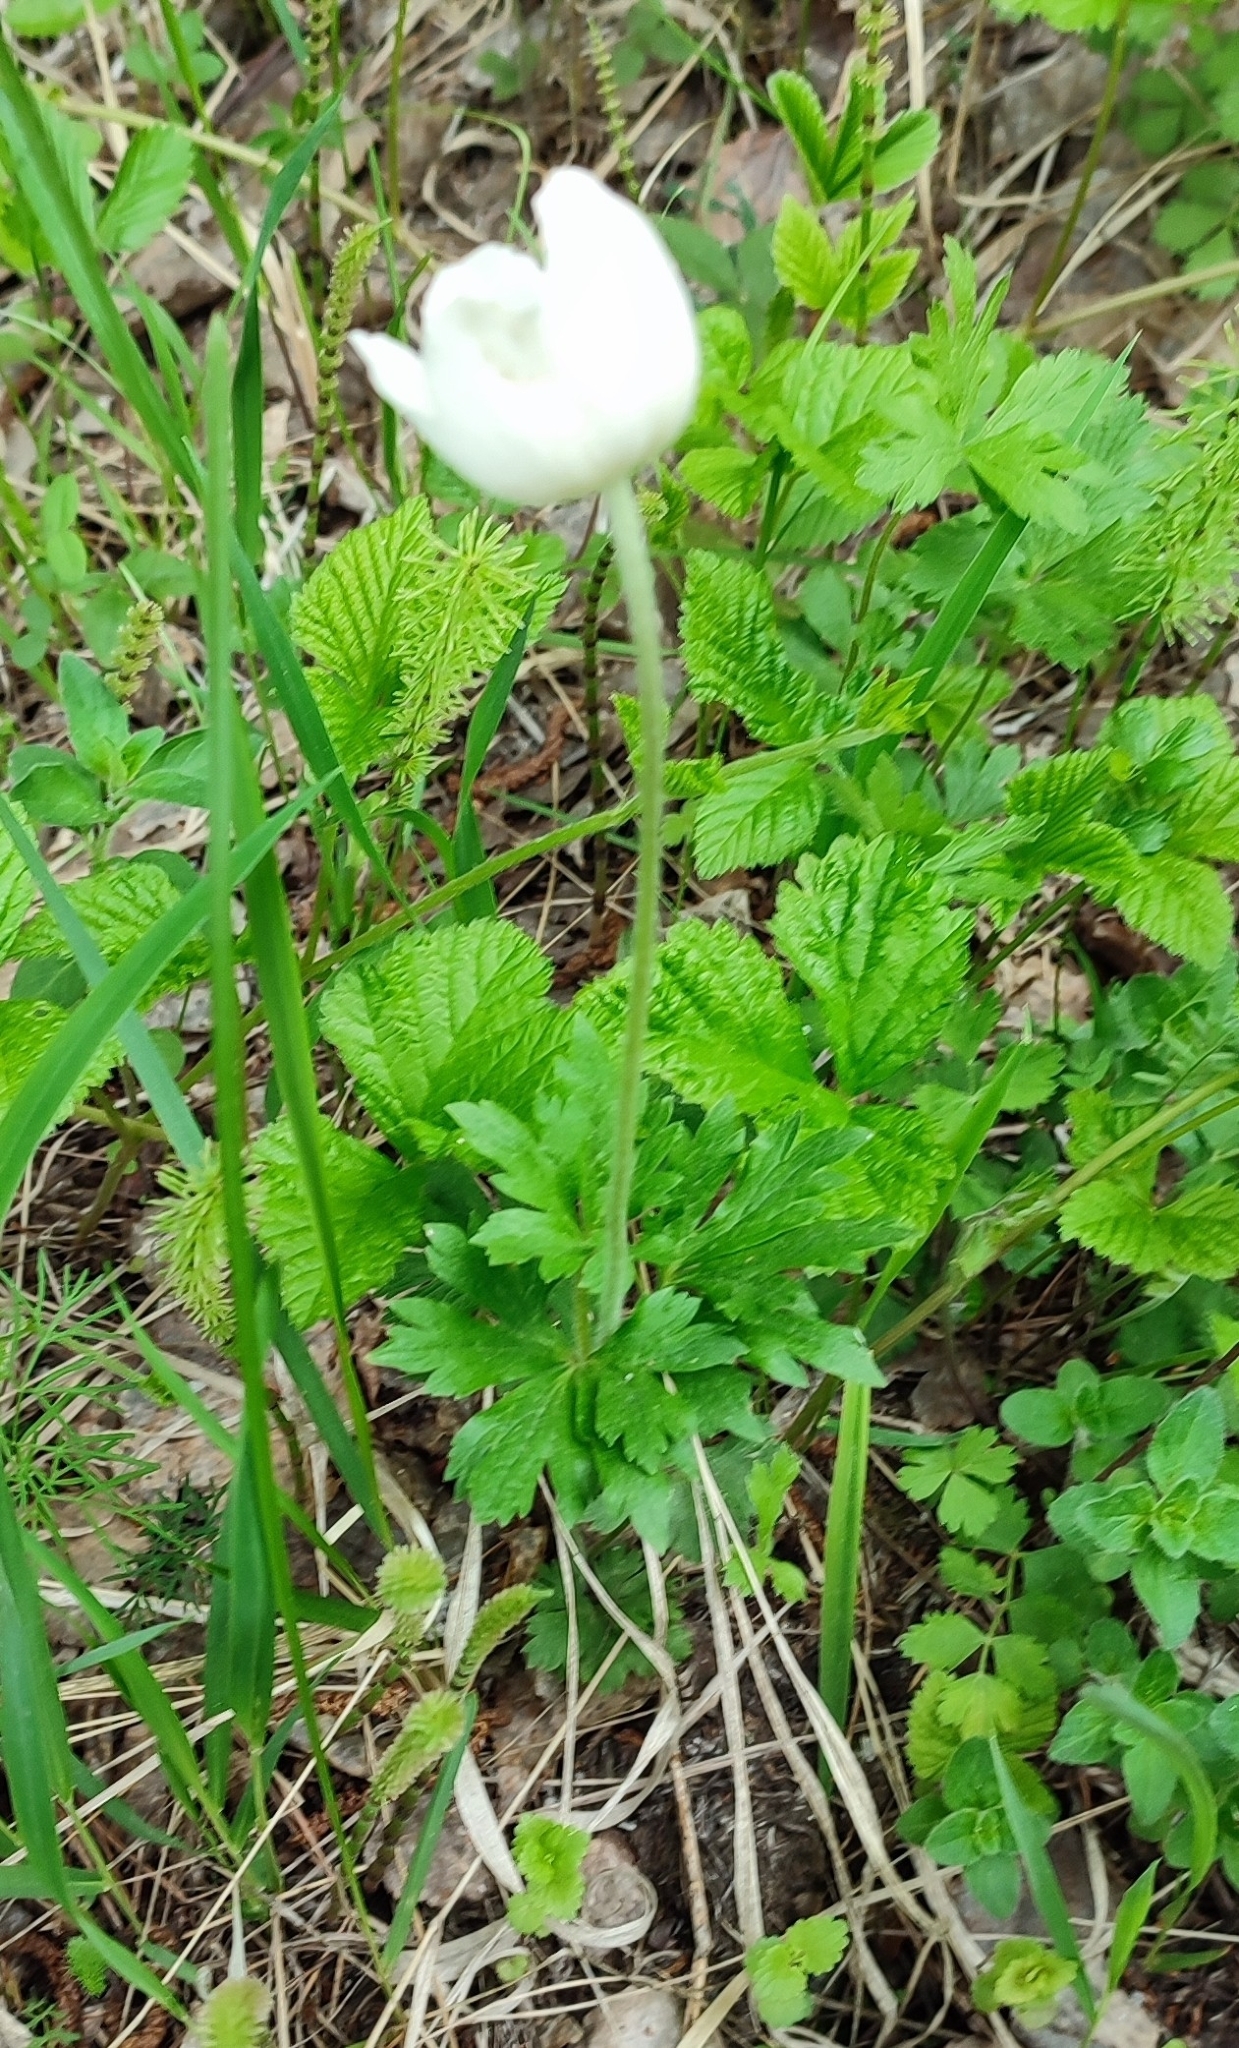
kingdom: Plantae
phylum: Tracheophyta
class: Magnoliopsida
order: Ranunculales
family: Ranunculaceae
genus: Anemone
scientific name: Anemone sylvestris
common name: Snowdrop anemone
